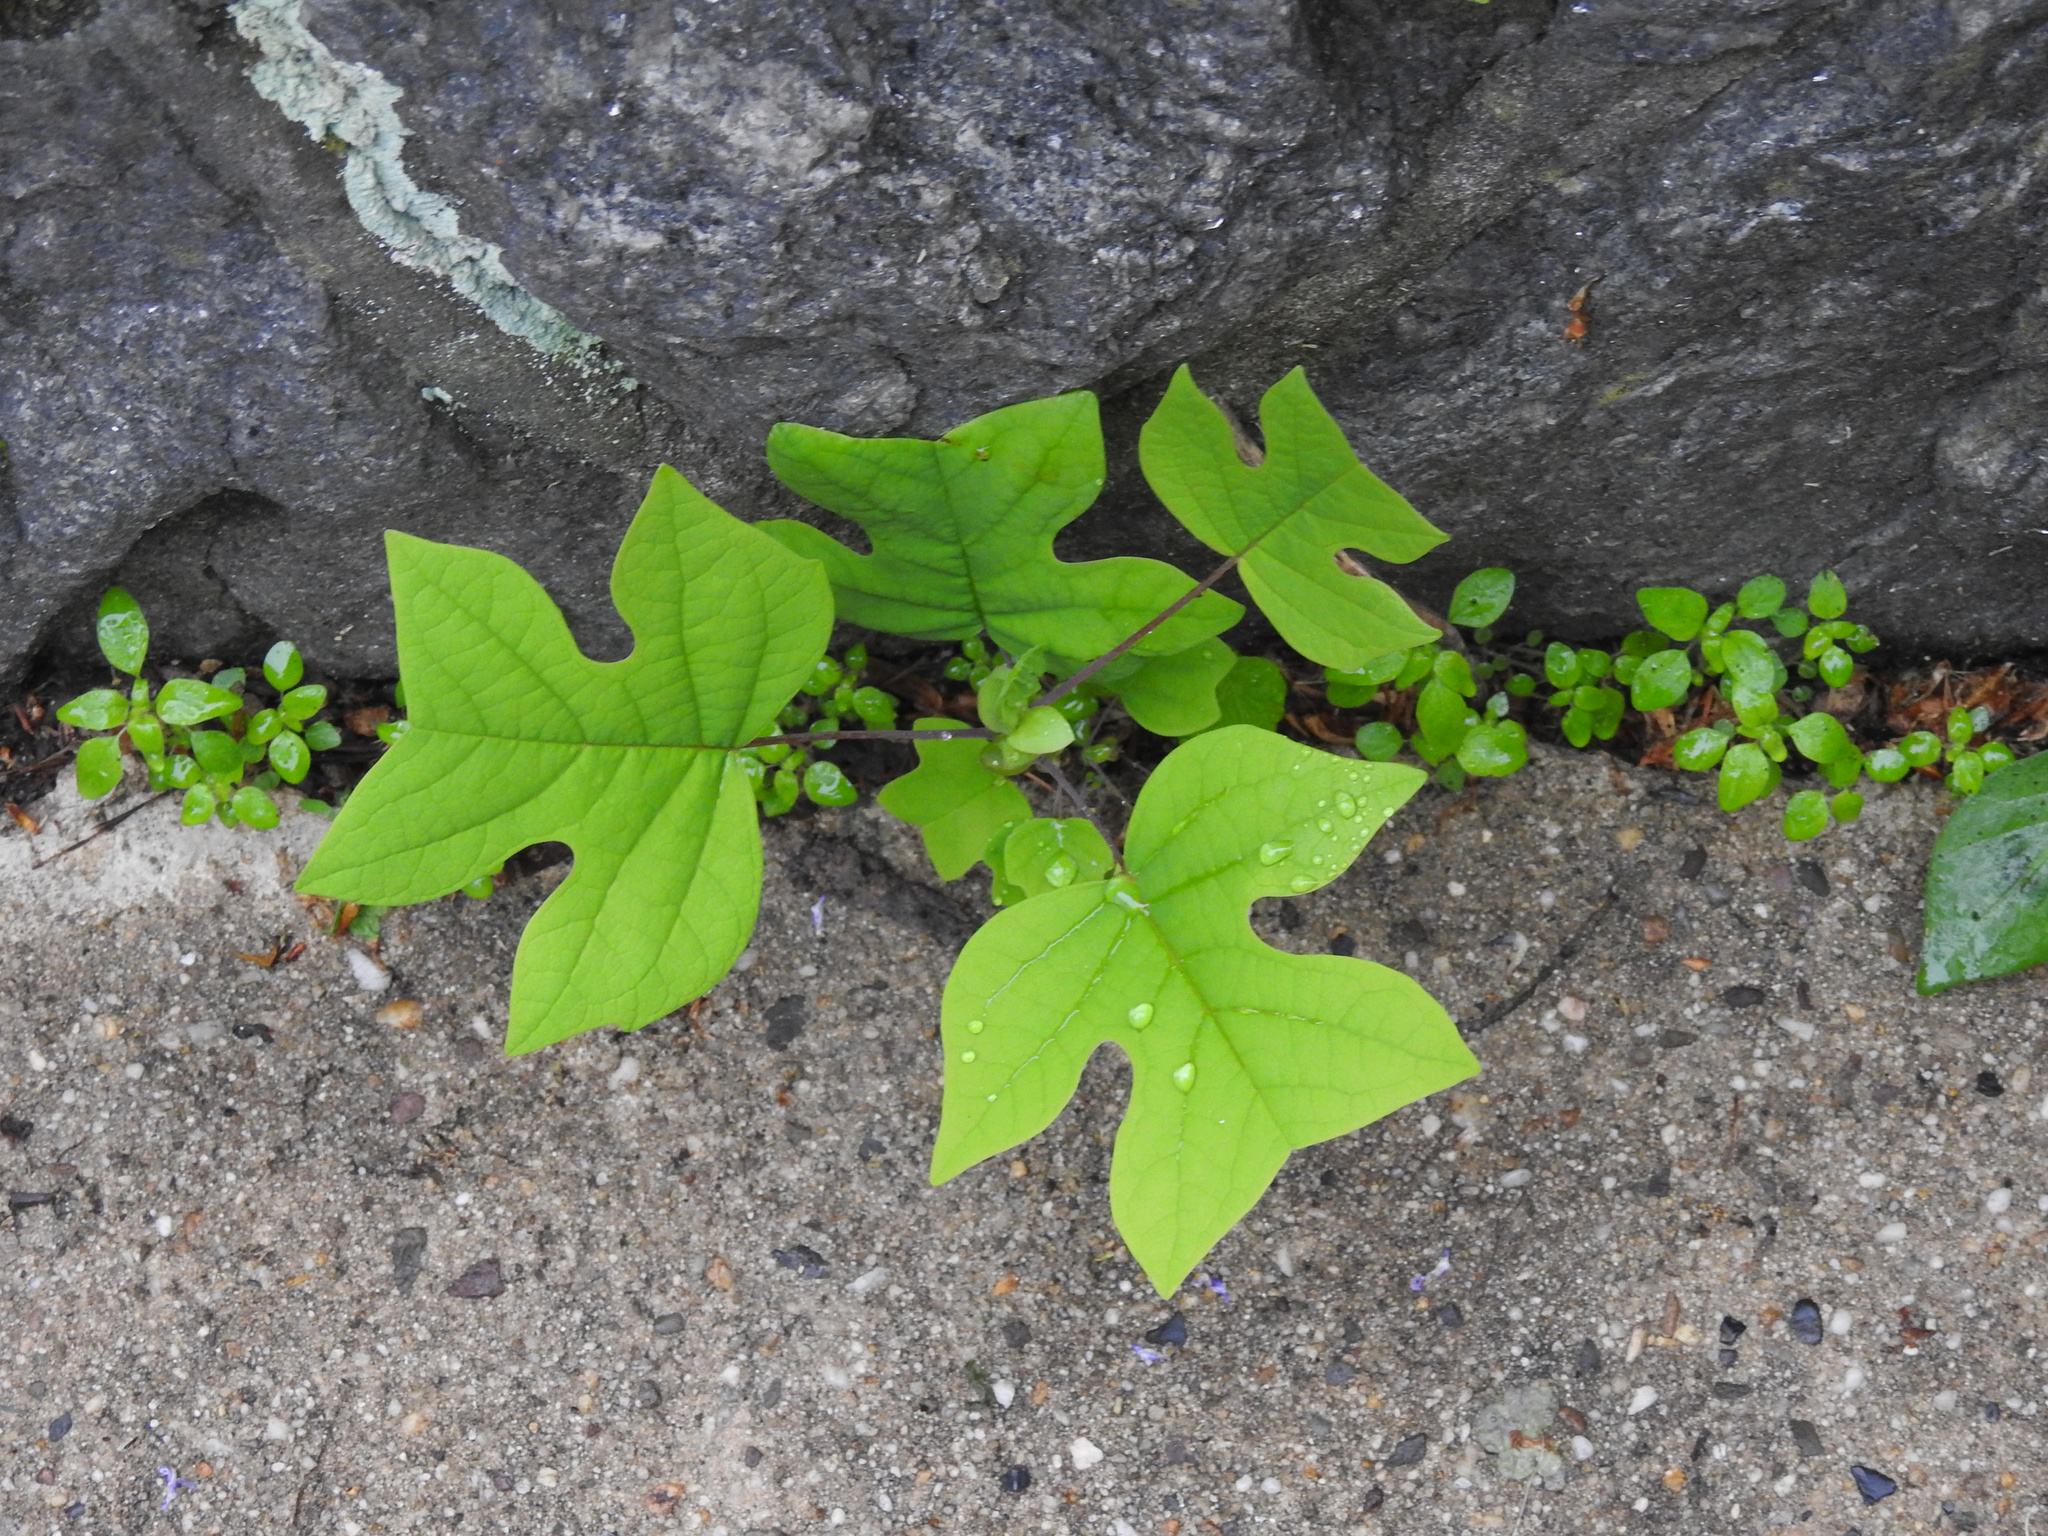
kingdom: Plantae
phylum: Tracheophyta
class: Magnoliopsida
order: Magnoliales
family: Magnoliaceae
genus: Liriodendron
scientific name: Liriodendron tulipifera
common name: Tulip tree
